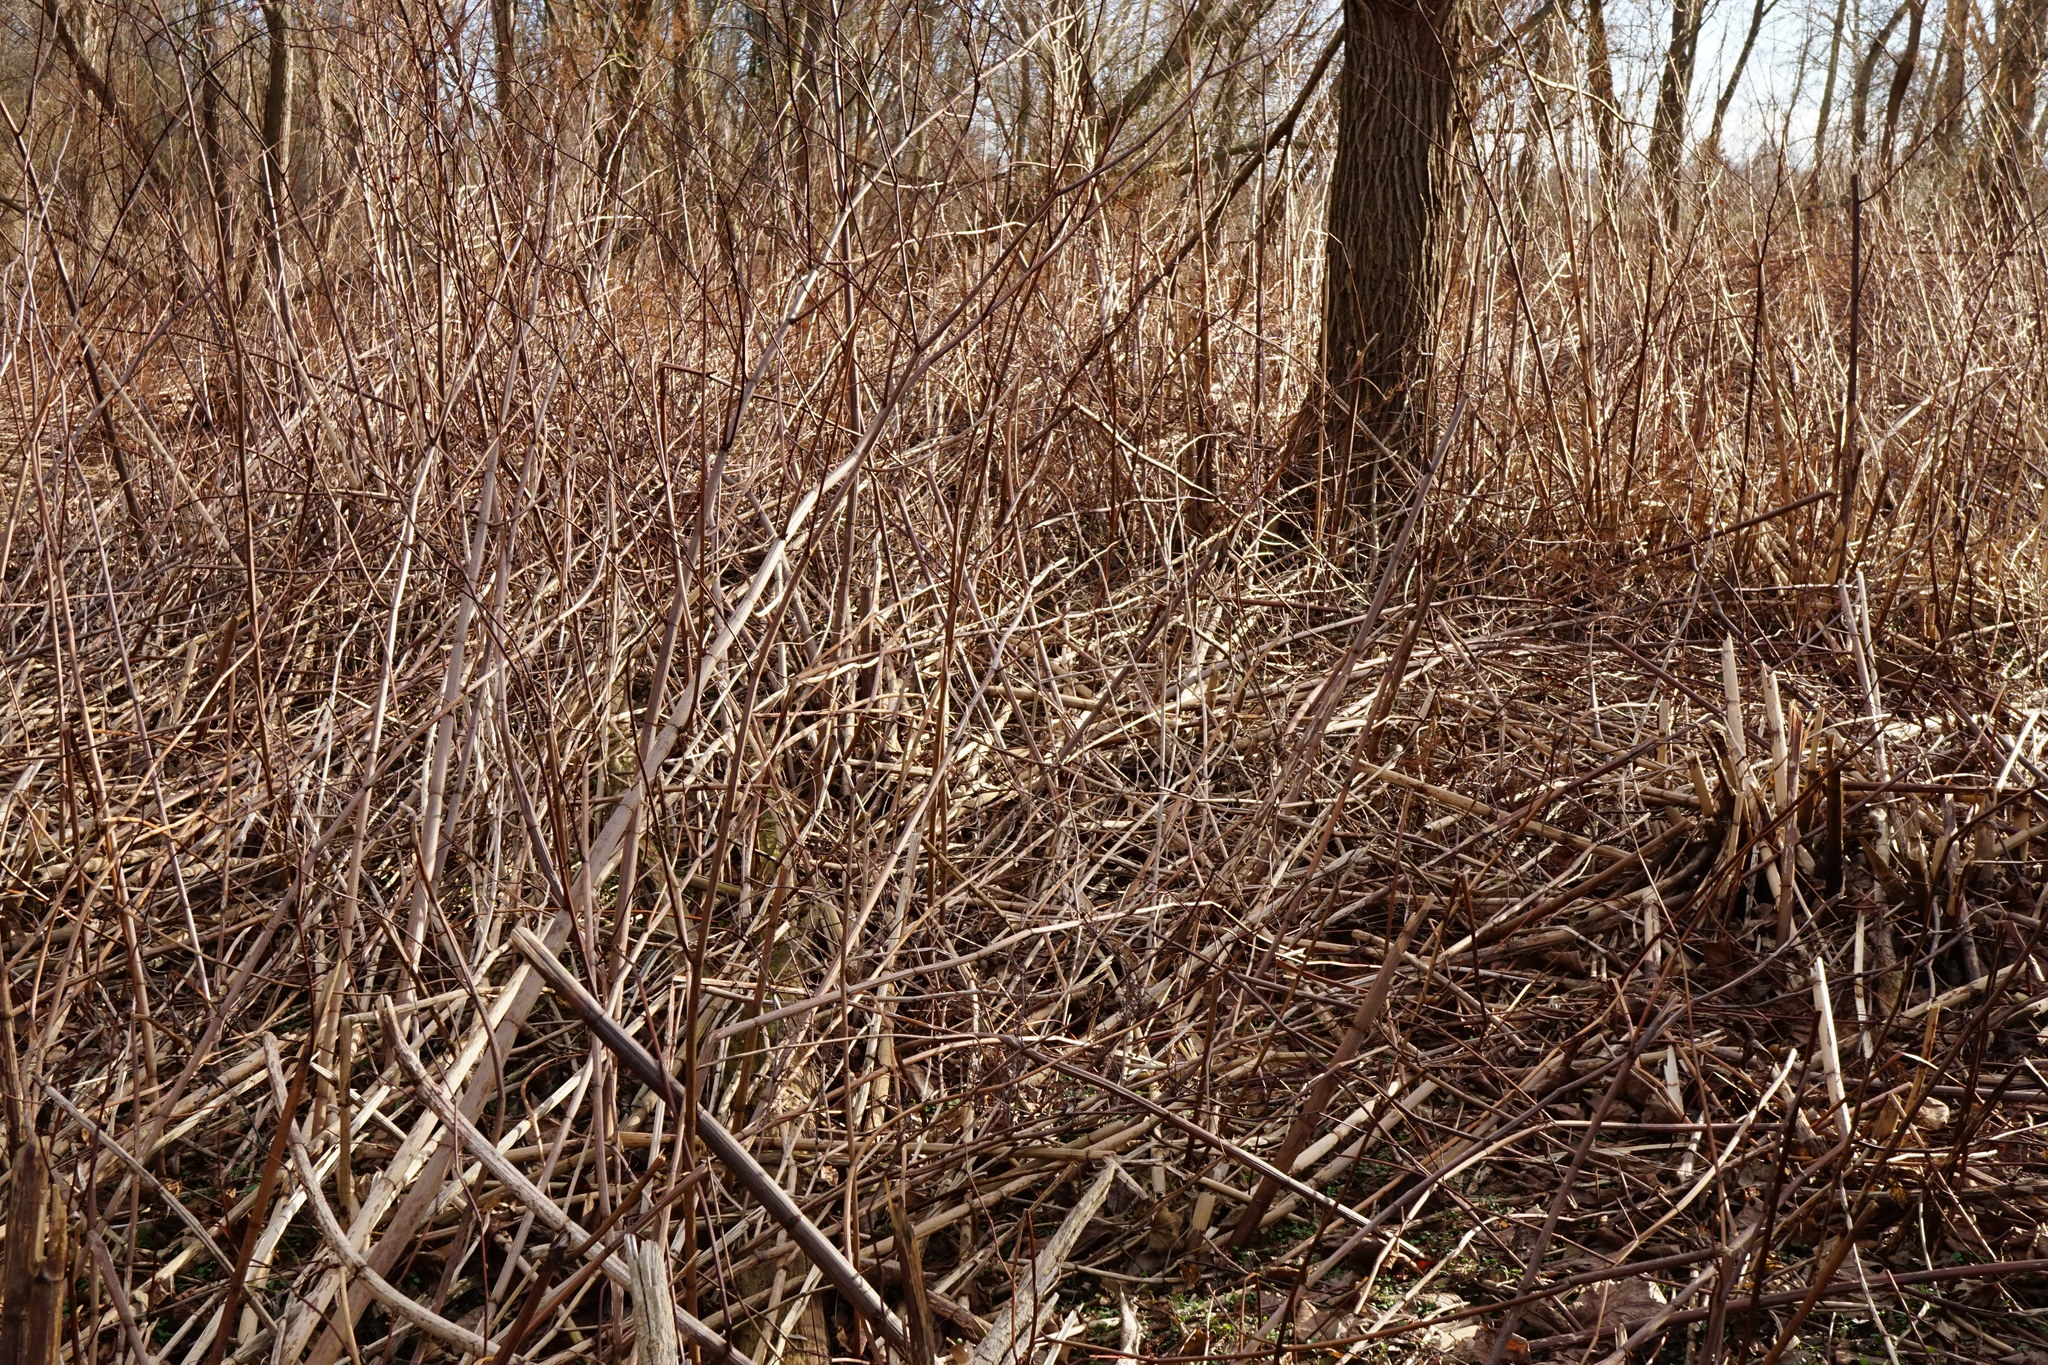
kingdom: Plantae
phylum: Tracheophyta
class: Magnoliopsida
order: Caryophyllales
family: Polygonaceae
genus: Reynoutria
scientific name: Reynoutria bohemica
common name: Bohemian knotweed
